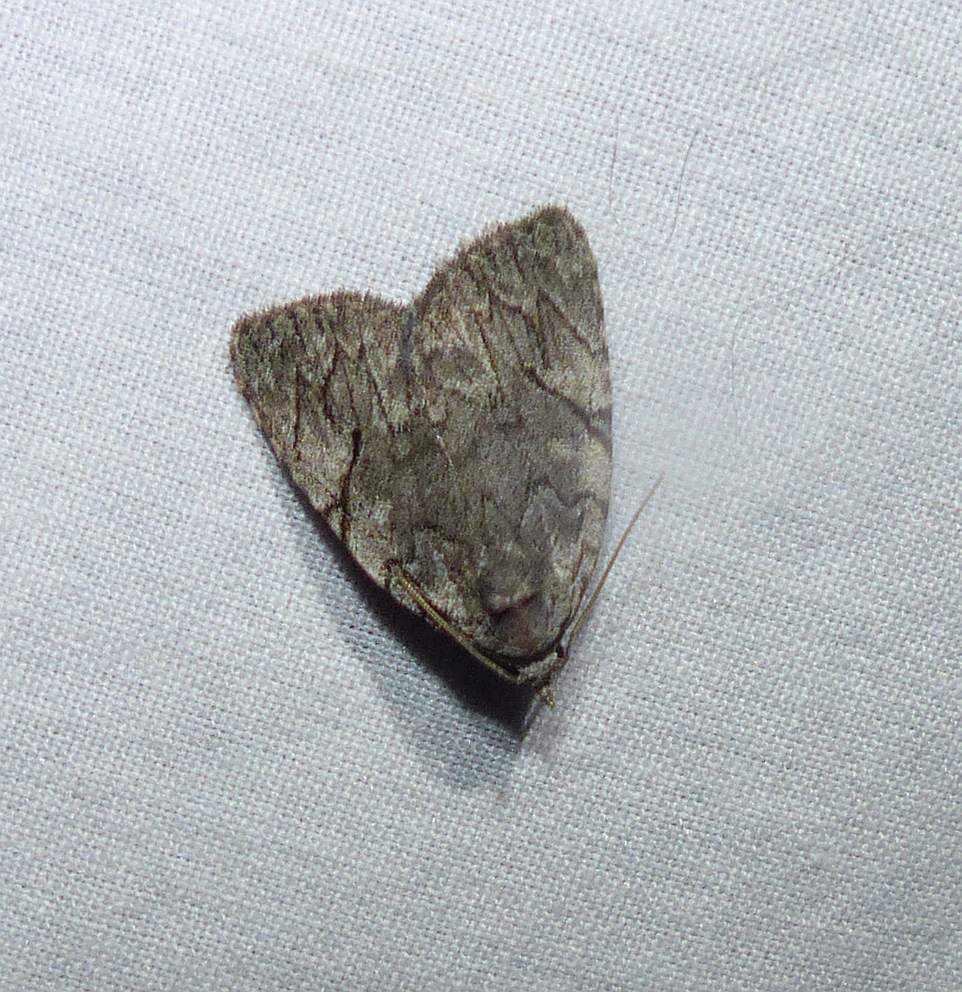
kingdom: Animalia
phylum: Arthropoda
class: Insecta
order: Lepidoptera
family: Noctuidae
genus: Balsa
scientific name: Balsa malana
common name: Many-dotted appleworm moth
